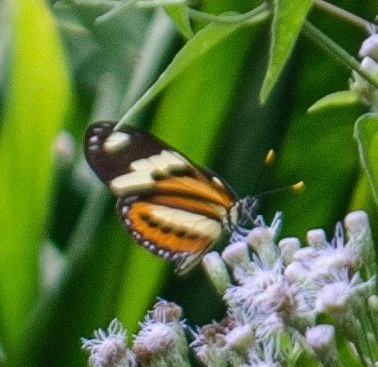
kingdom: Animalia
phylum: Arthropoda
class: Insecta
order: Lepidoptera
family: Nymphalidae
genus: Eueides
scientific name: Eueides isabella
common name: Isabella's longwing
